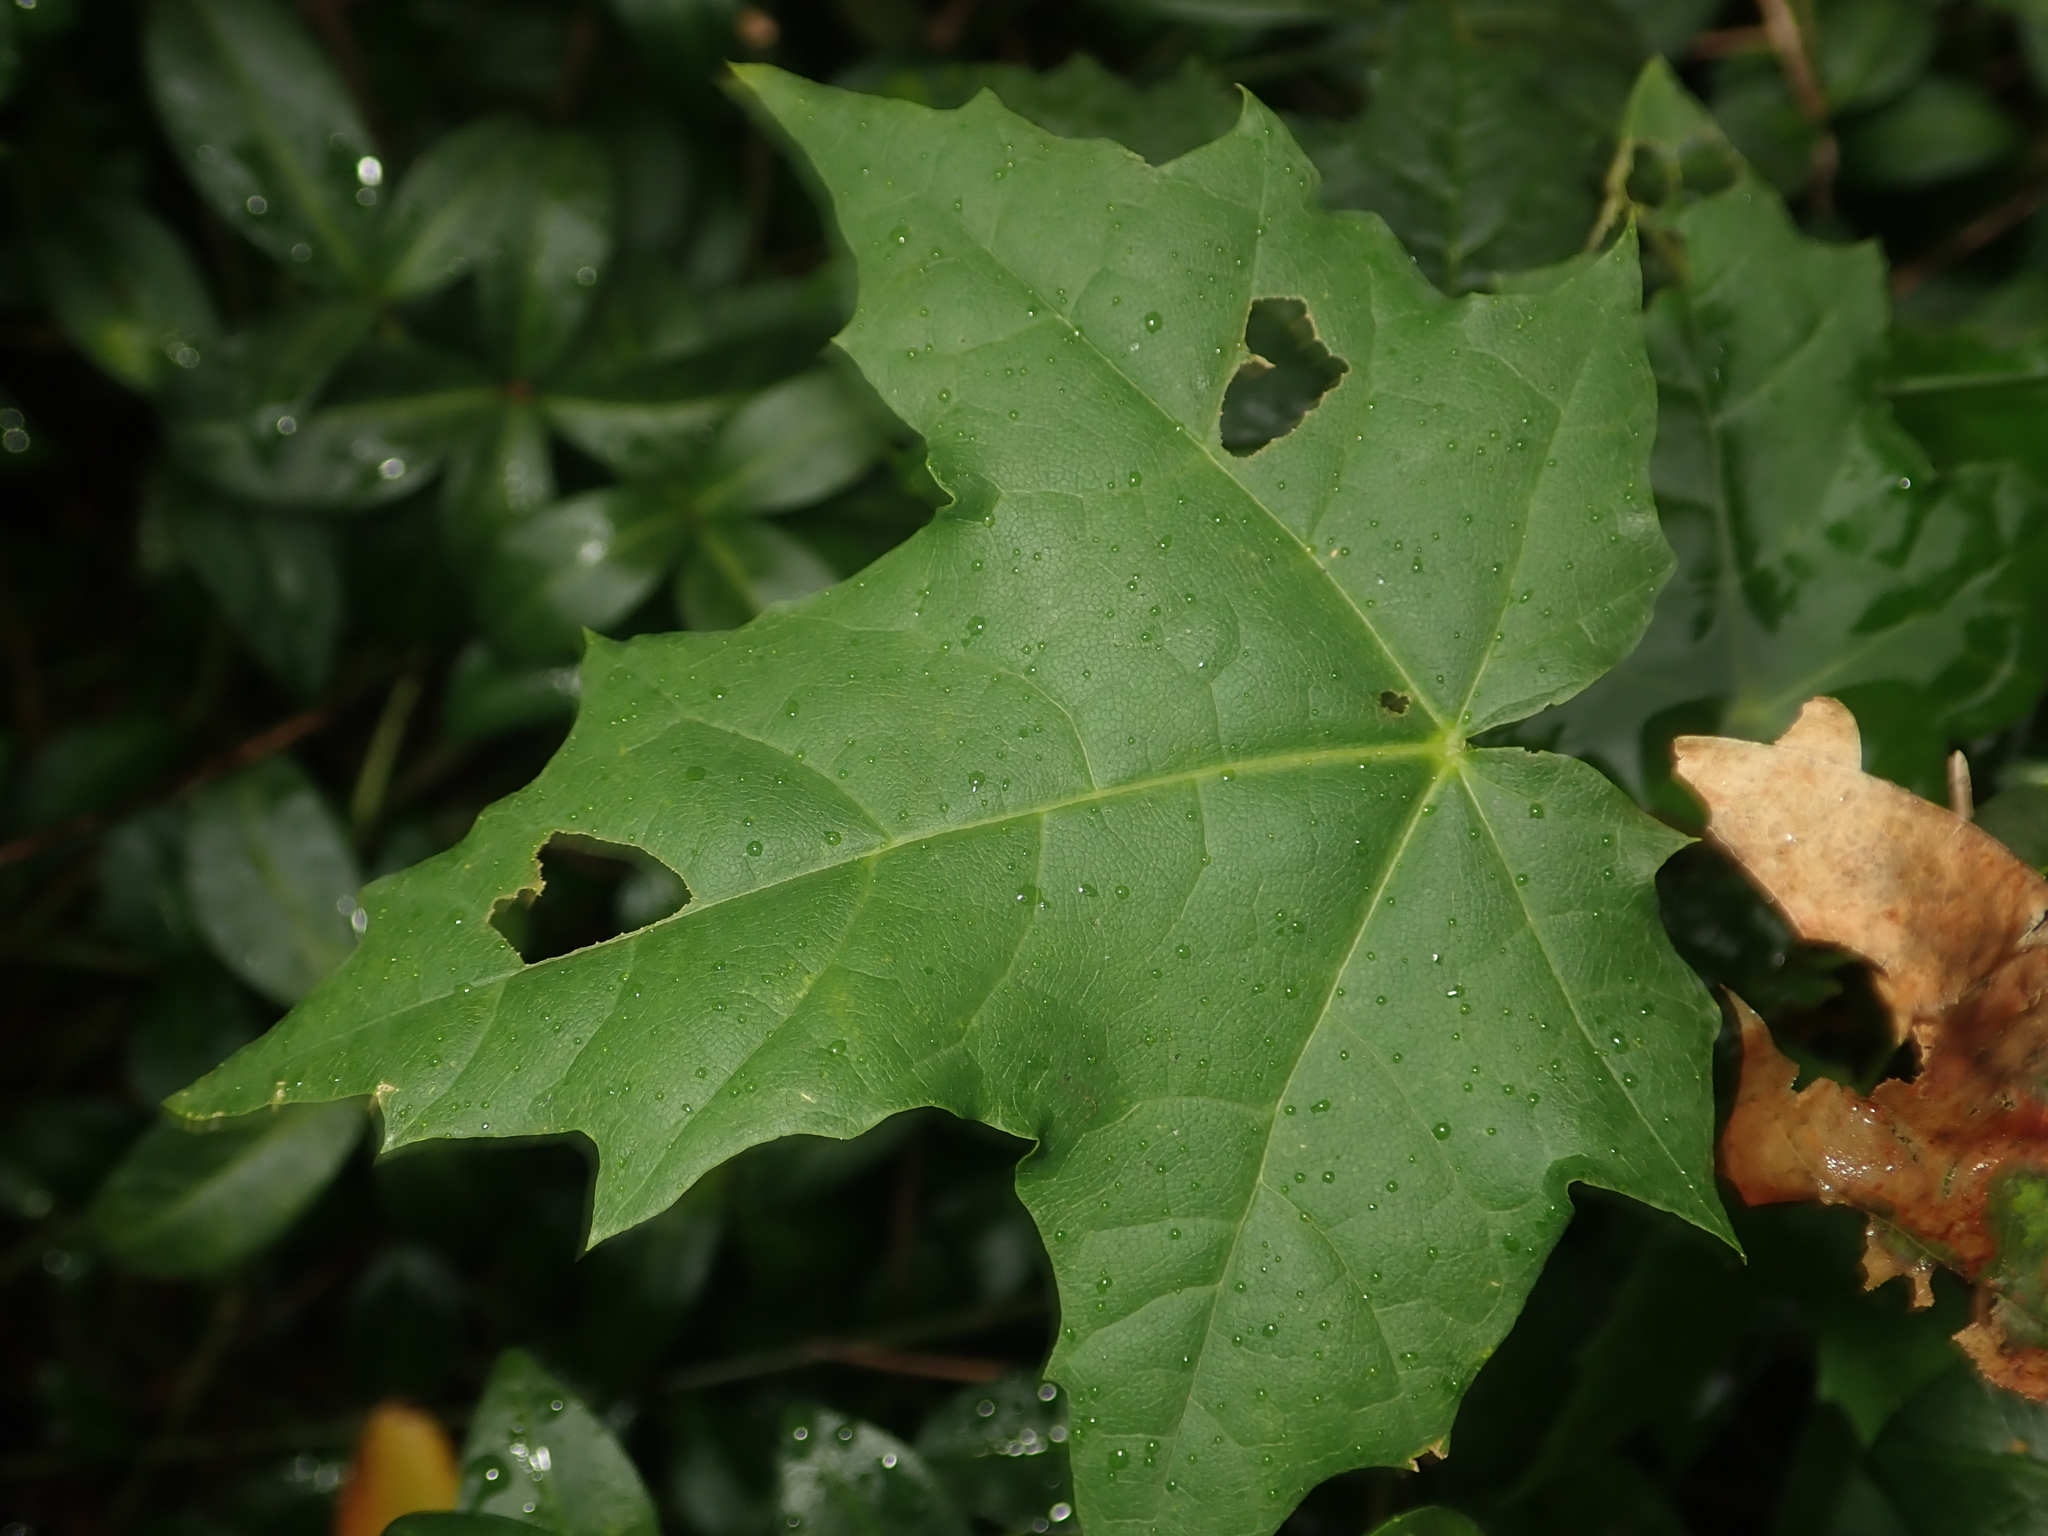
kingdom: Plantae
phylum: Tracheophyta
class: Magnoliopsida
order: Sapindales
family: Sapindaceae
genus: Acer
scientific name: Acer platanoides
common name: Norway maple
